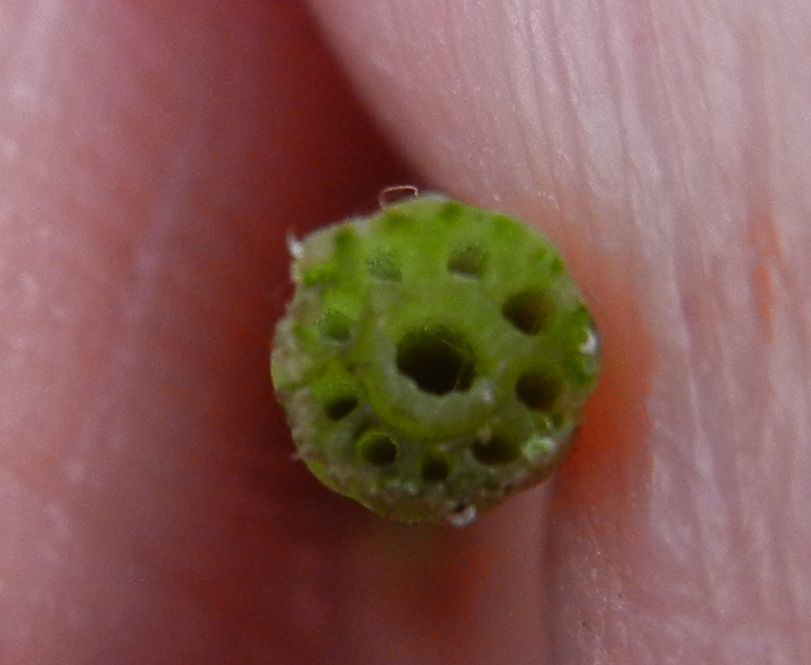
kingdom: Plantae
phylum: Tracheophyta
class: Polypodiopsida
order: Equisetales
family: Equisetaceae
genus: Equisetum
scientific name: Equisetum arvense
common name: Field horsetail
